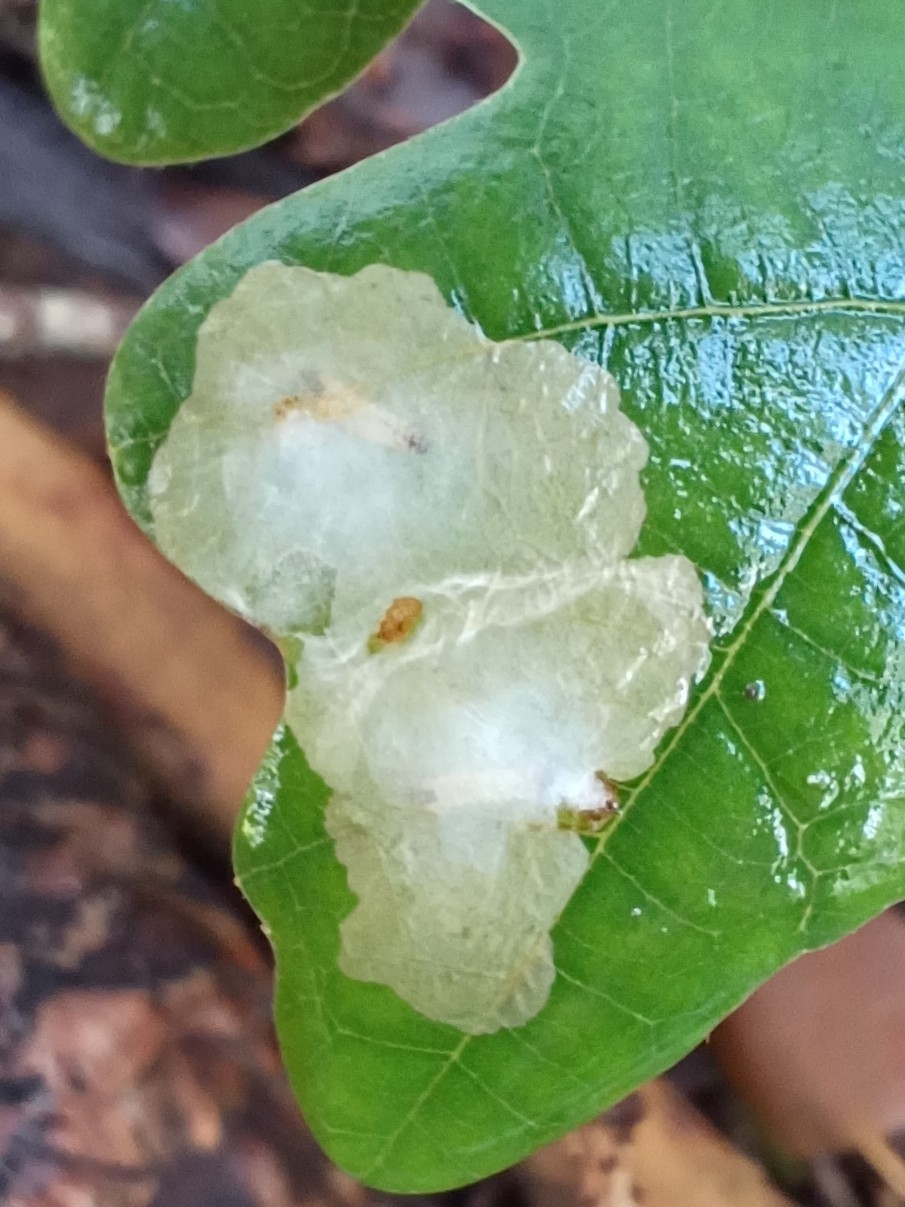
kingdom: Animalia
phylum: Arthropoda
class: Insecta
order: Lepidoptera
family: Tischeriidae
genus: Tischeria
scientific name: Tischeria ekebladella
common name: Oak carl
